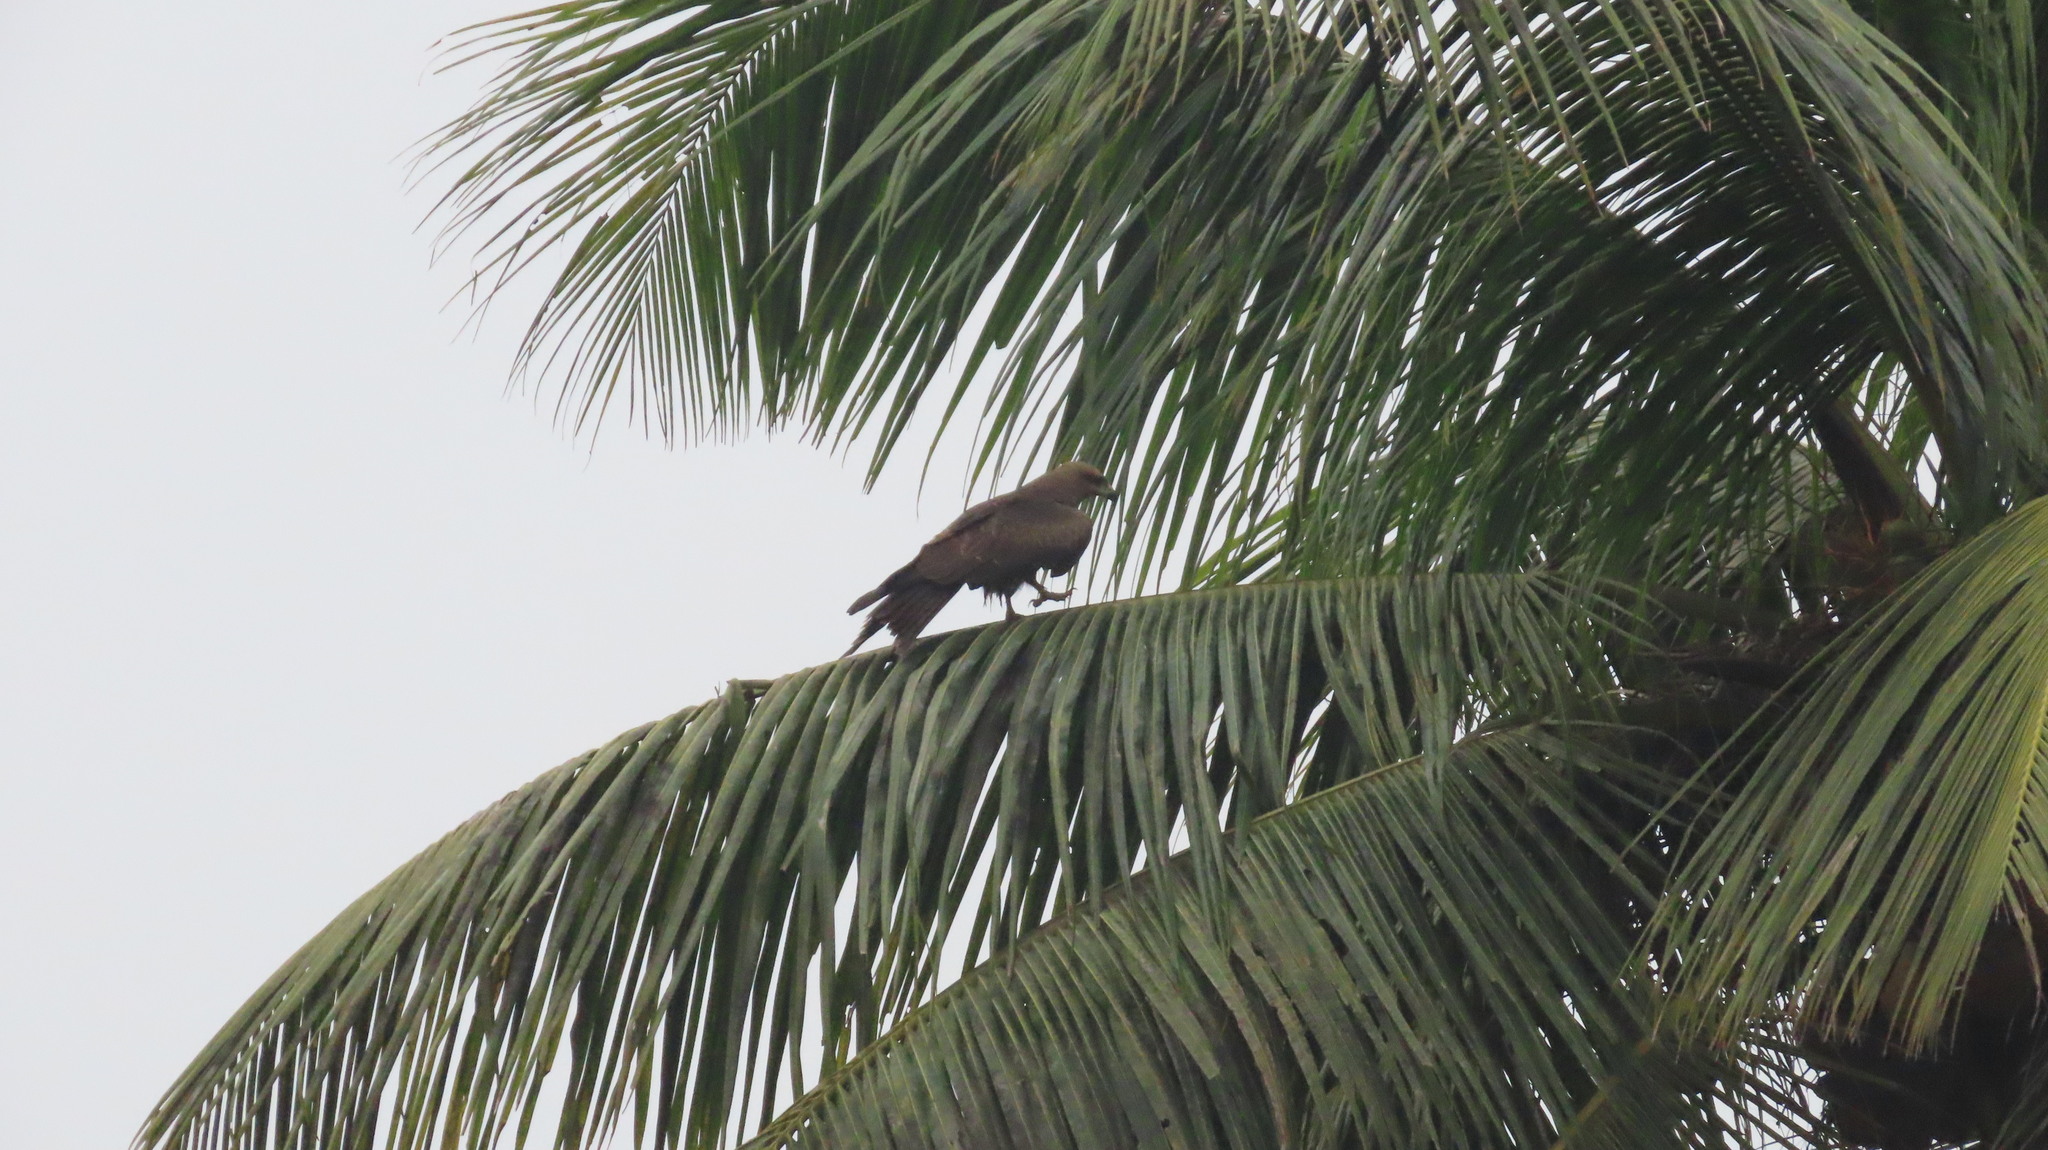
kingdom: Animalia
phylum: Chordata
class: Aves
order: Accipitriformes
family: Accipitridae
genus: Milvus
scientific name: Milvus migrans
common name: Black kite
